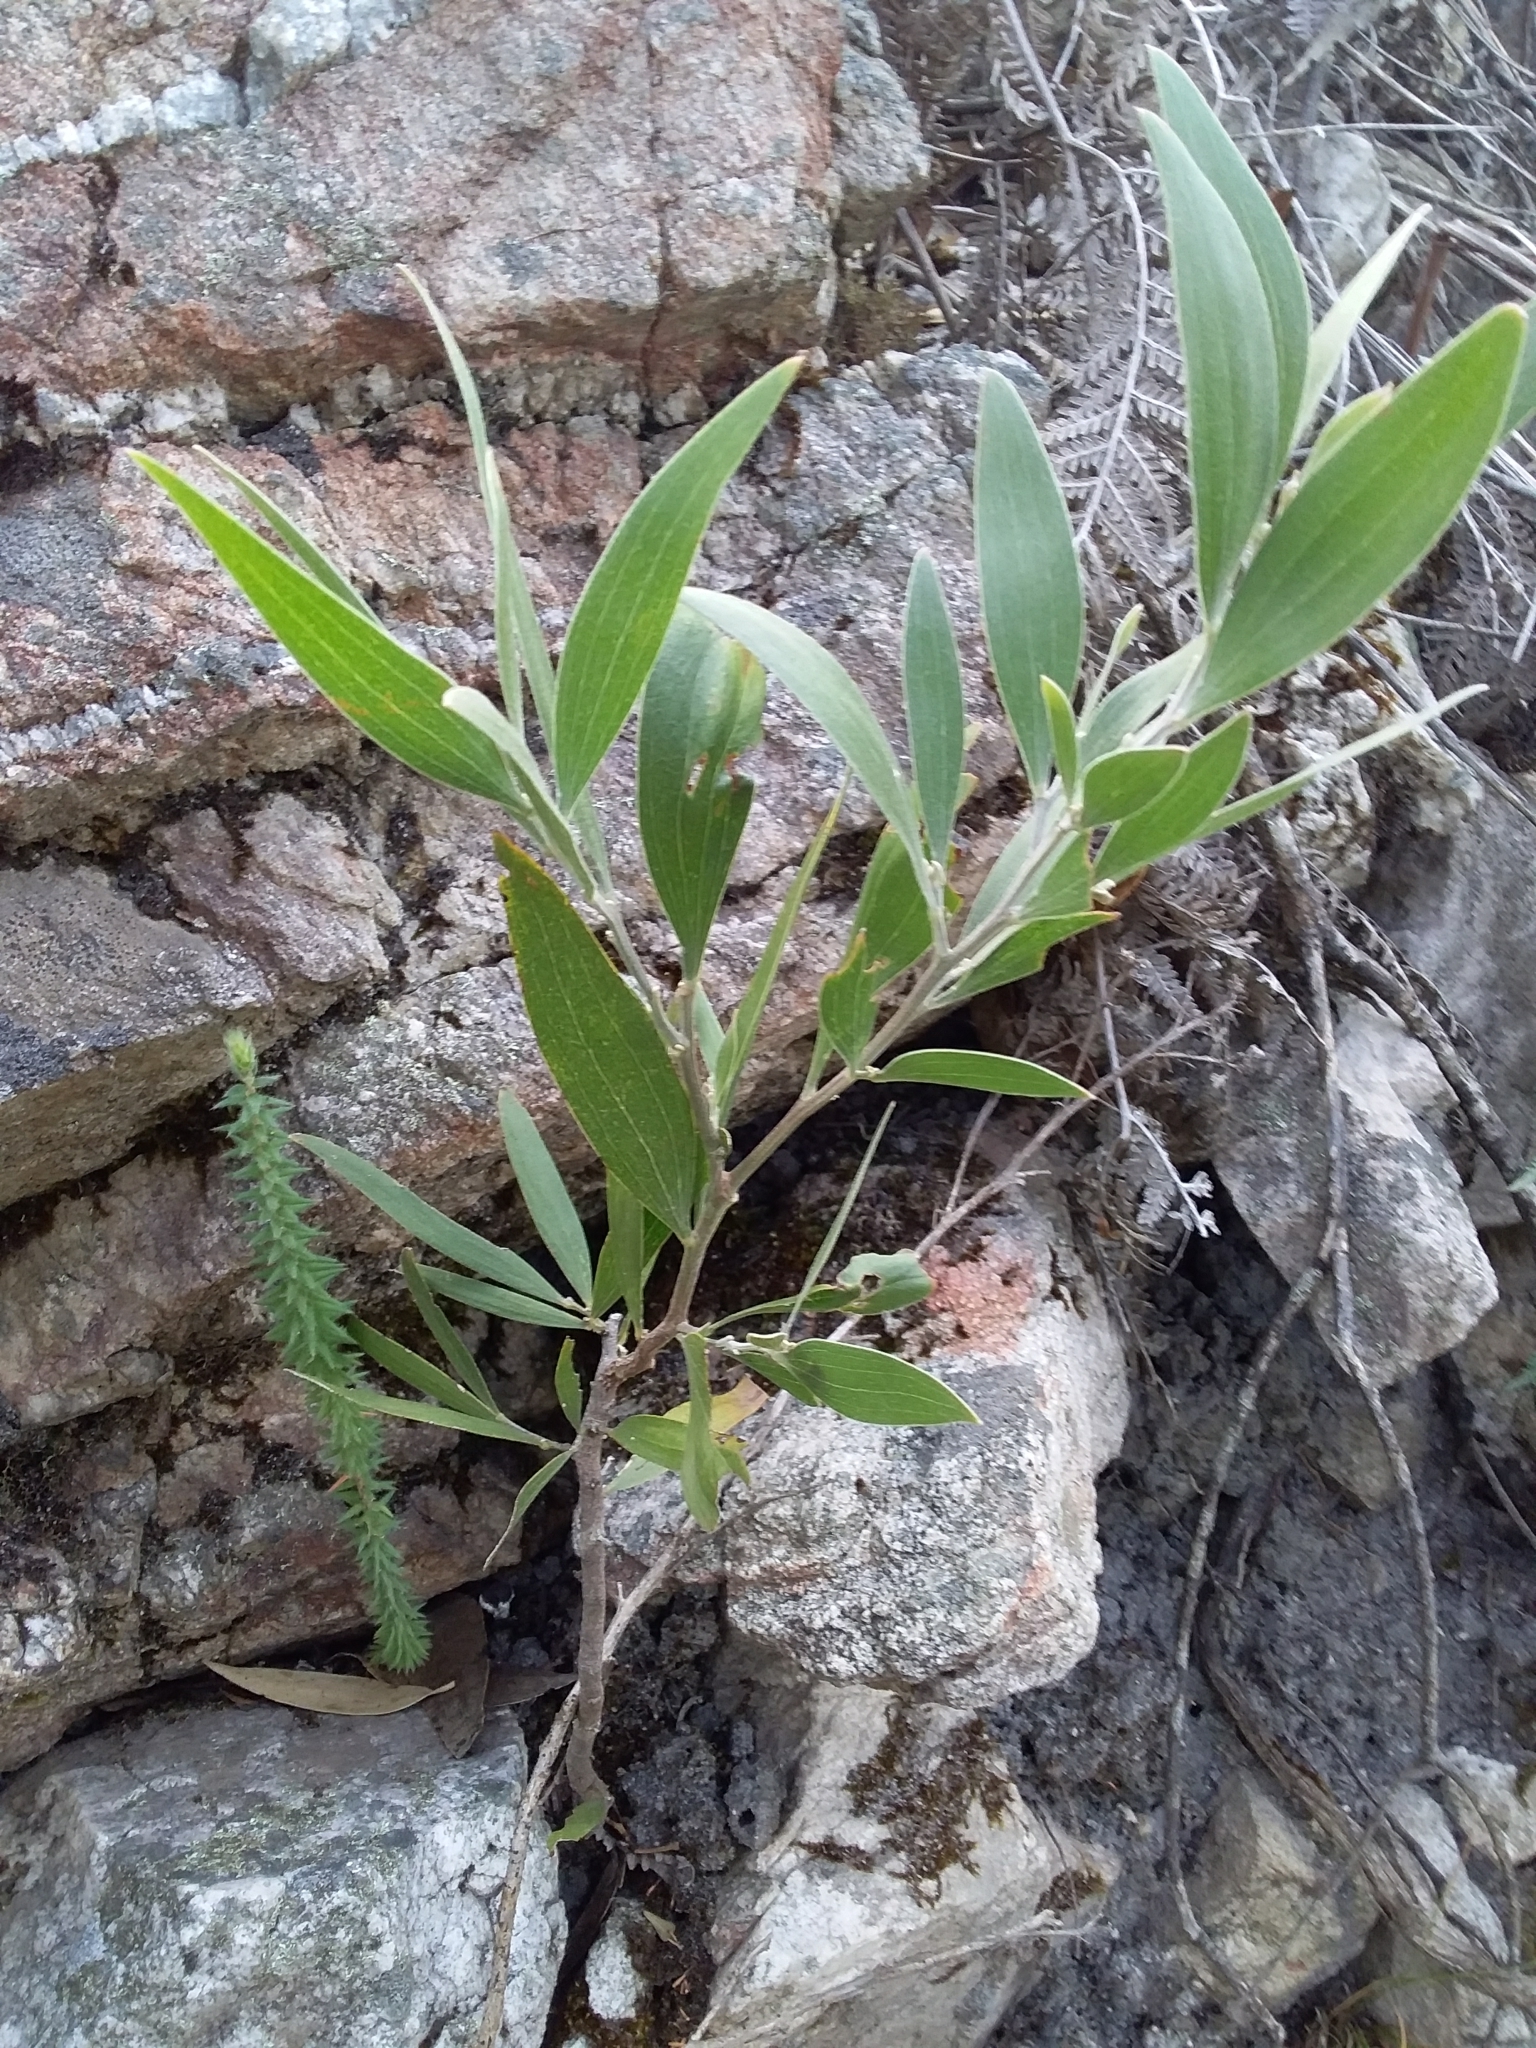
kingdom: Plantae
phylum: Tracheophyta
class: Magnoliopsida
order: Fabales
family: Fabaceae
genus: Acacia
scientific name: Acacia melanoxylon
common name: Blackwood
